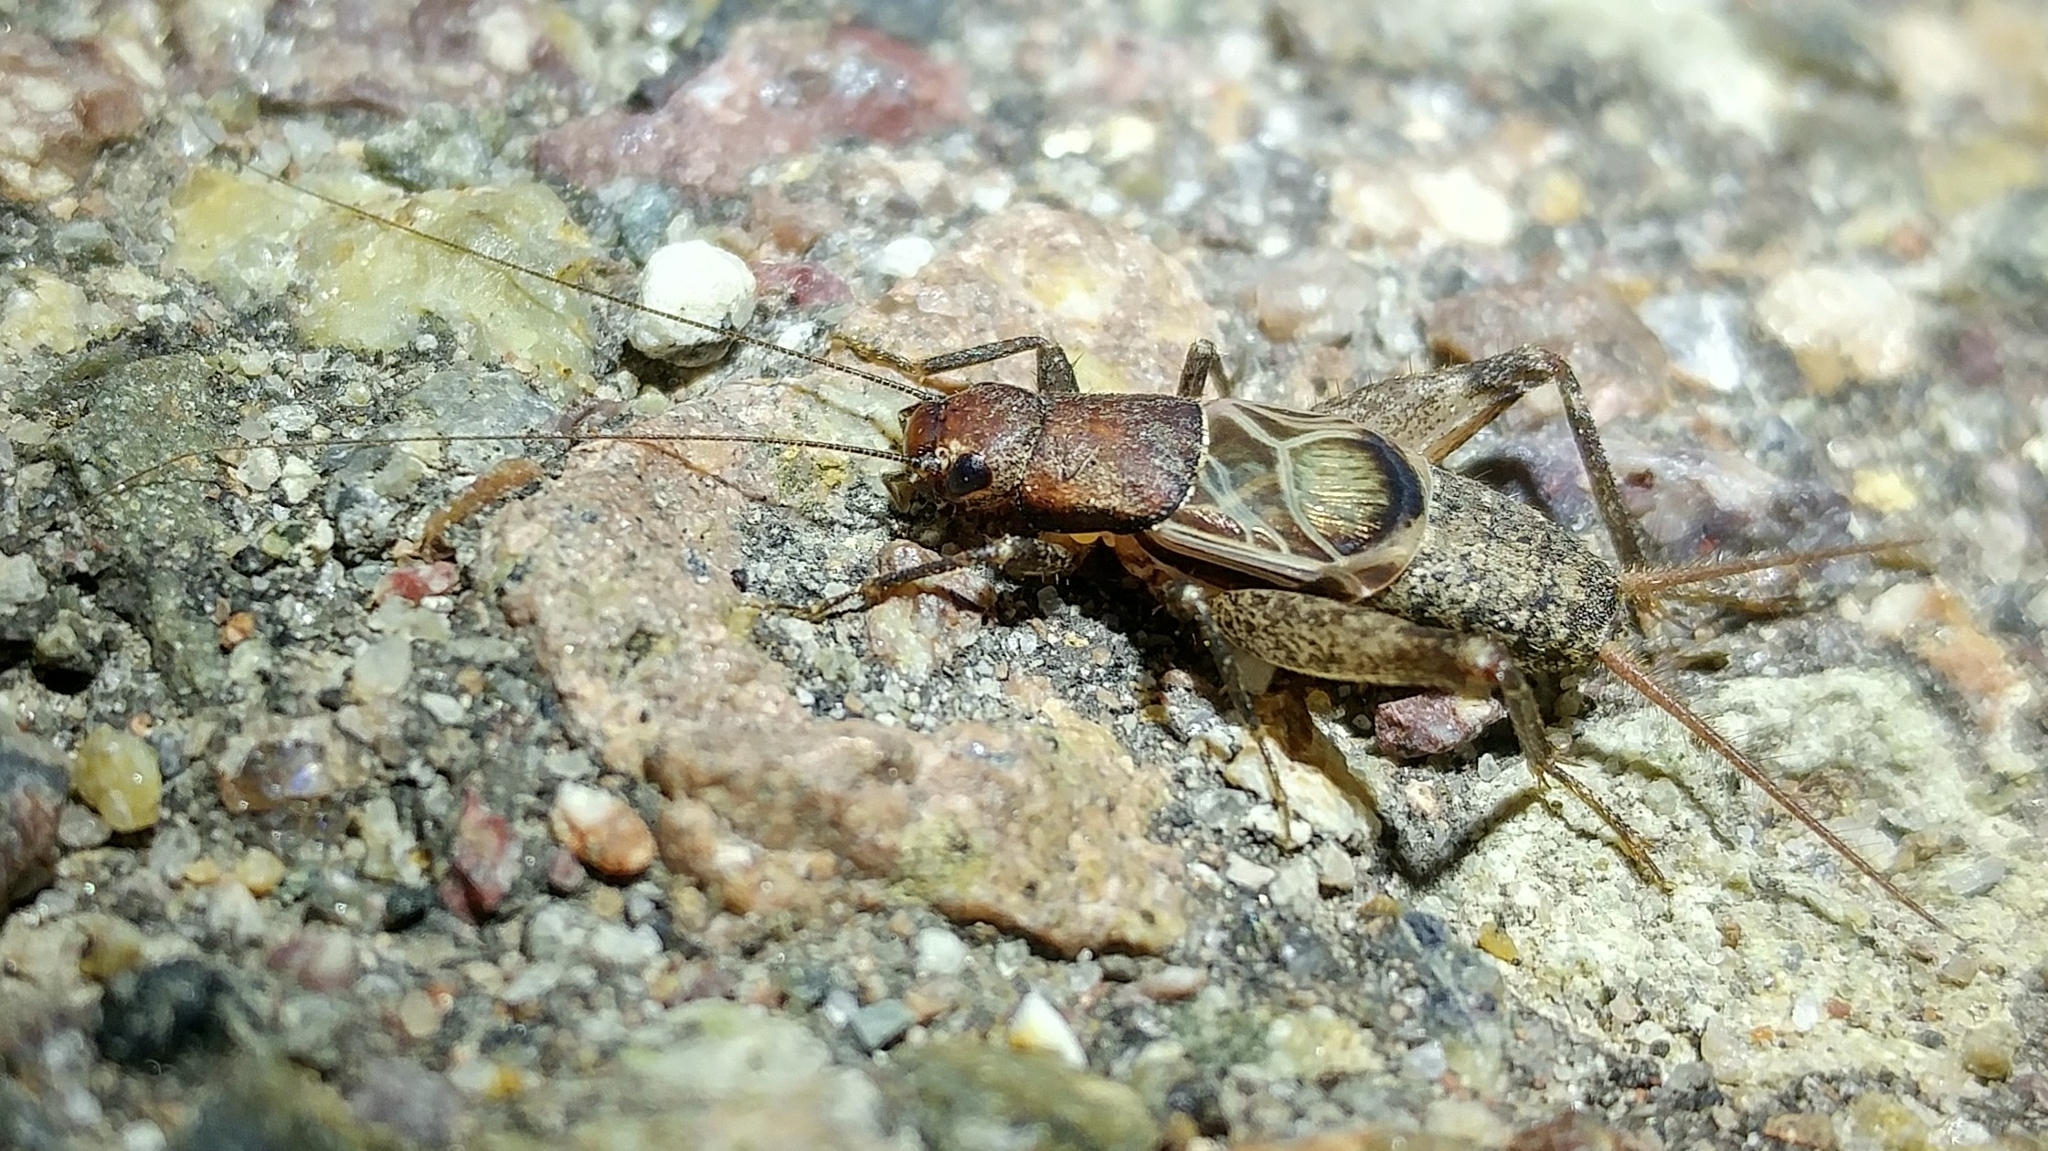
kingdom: Animalia
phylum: Arthropoda
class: Insecta
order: Orthoptera
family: Mogoplistidae
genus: Hoplosphyrum
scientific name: Hoplosphyrum boreale
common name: Long-winged scaly cricket
